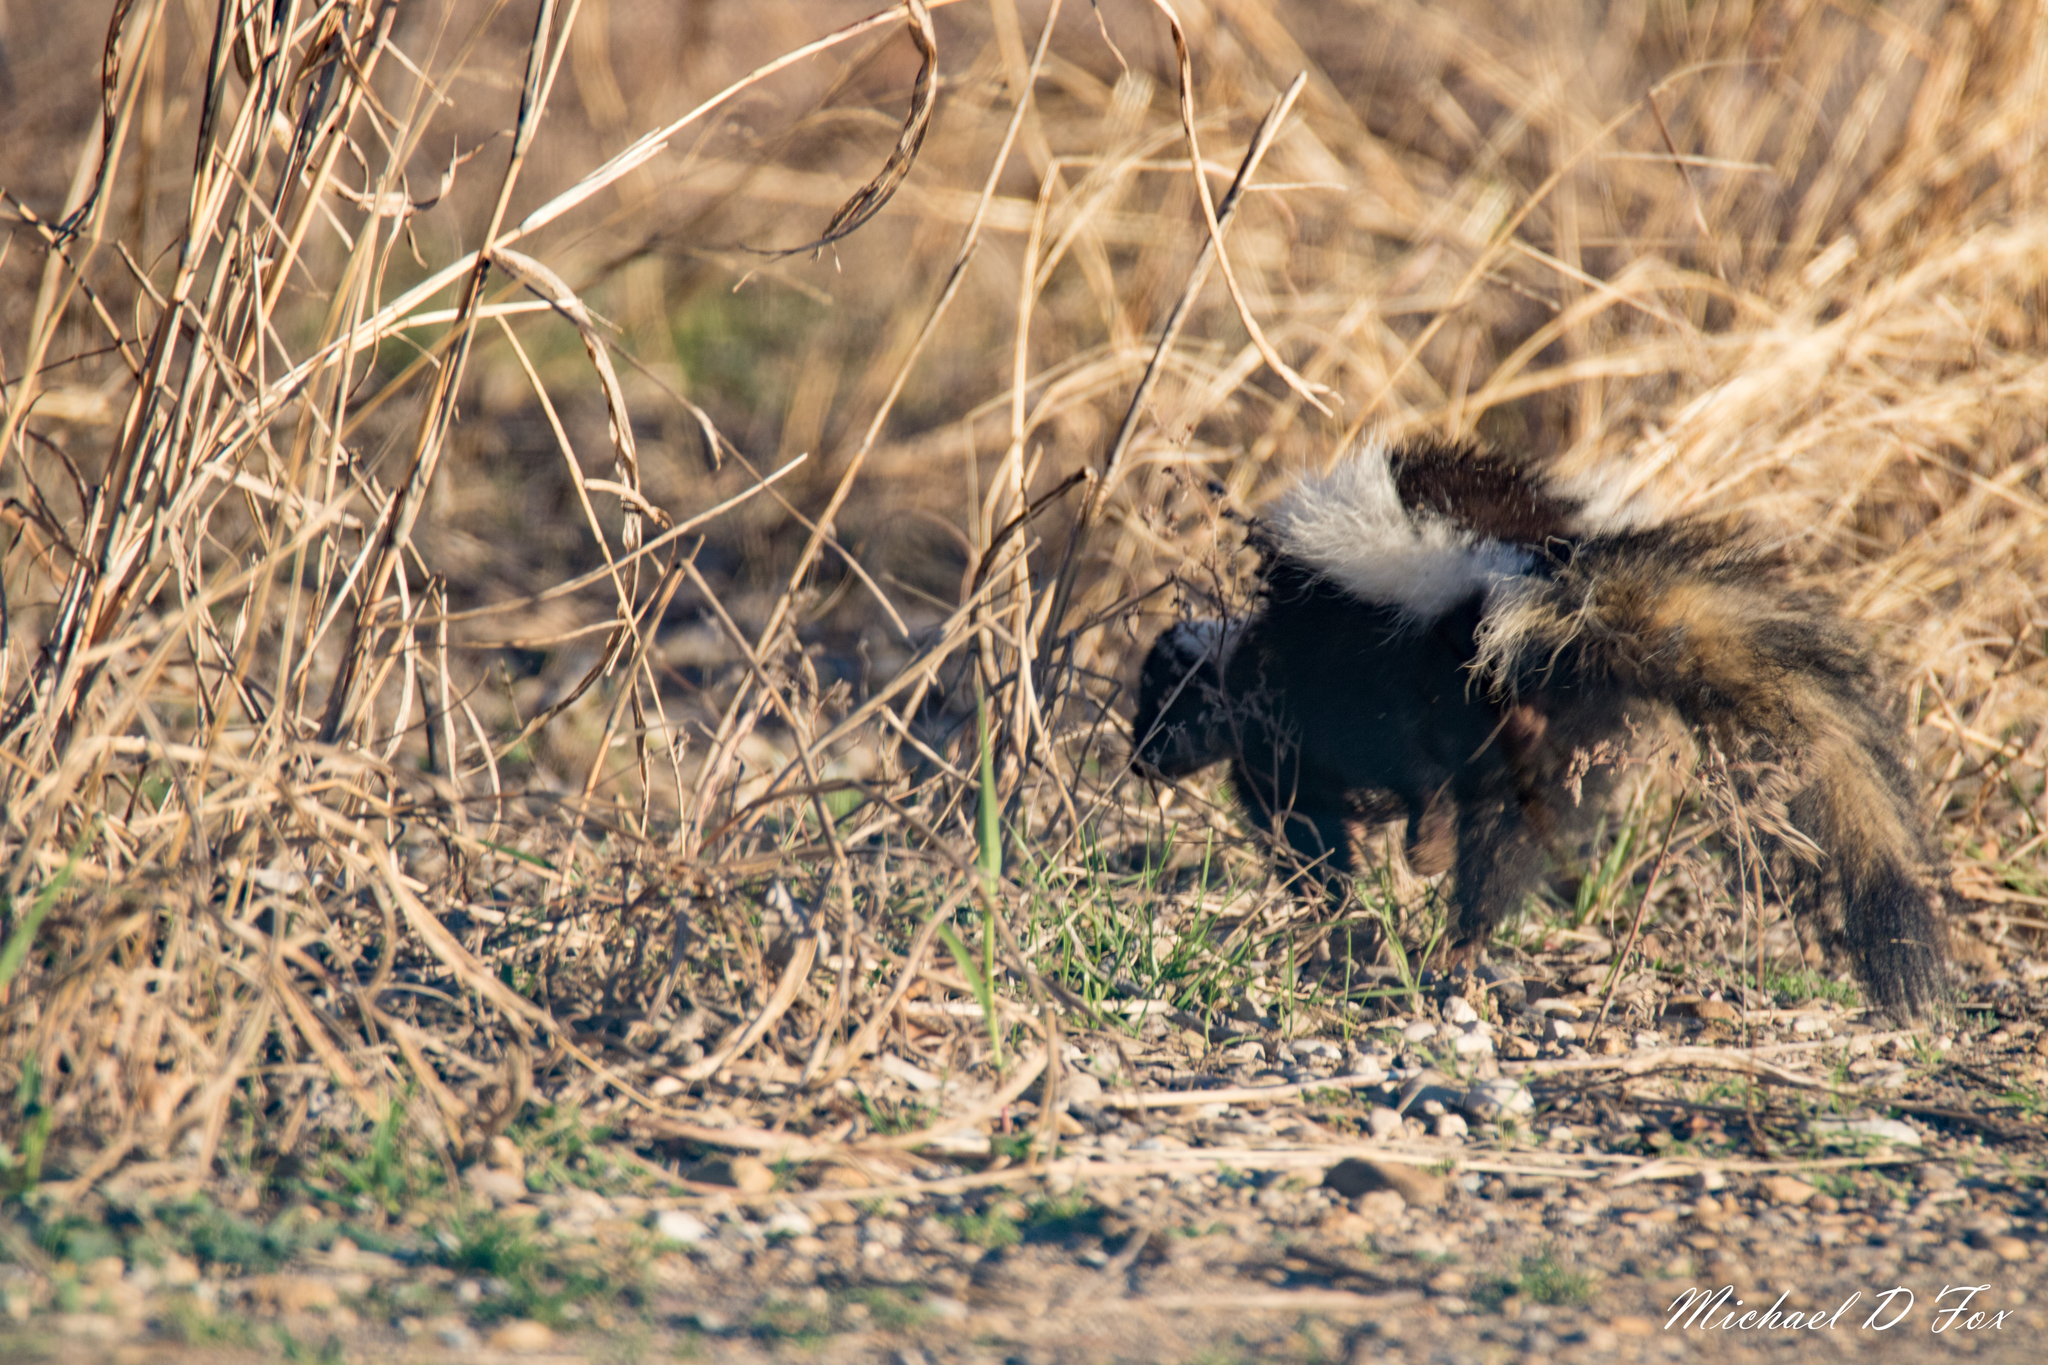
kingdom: Animalia
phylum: Chordata
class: Mammalia
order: Carnivora
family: Mephitidae
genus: Mephitis
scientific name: Mephitis mephitis
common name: Striped skunk
